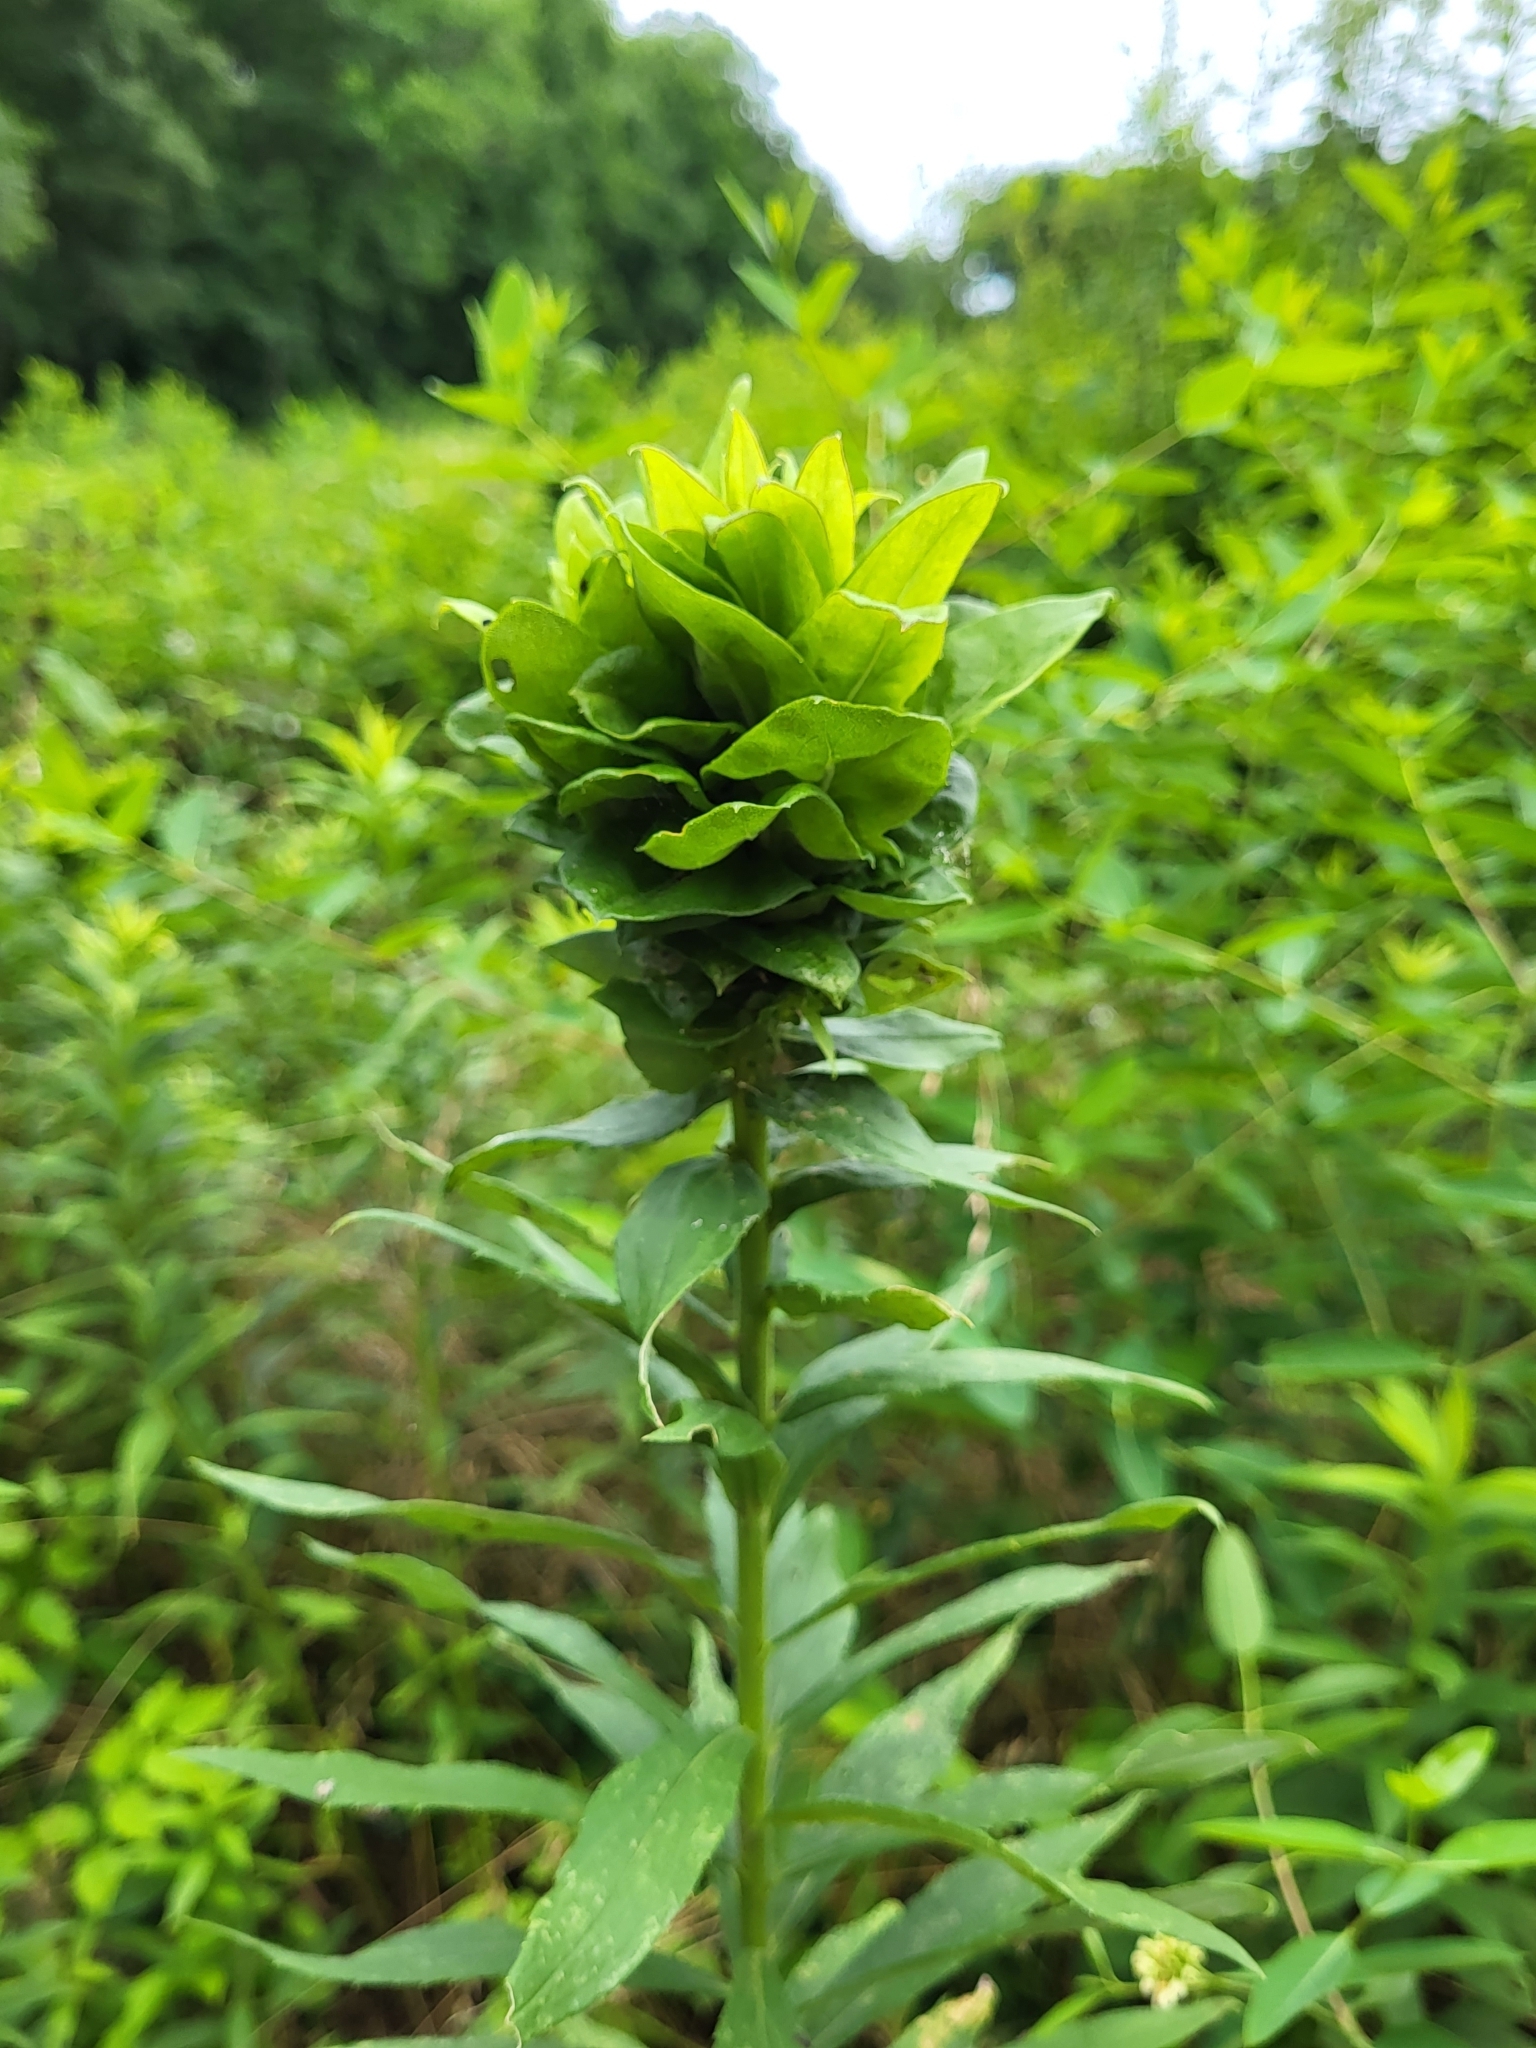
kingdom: Animalia
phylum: Arthropoda
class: Insecta
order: Diptera
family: Cecidomyiidae
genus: Rhopalomyia
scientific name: Rhopalomyia solidaginis
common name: Goldenrod bunch gall midge
